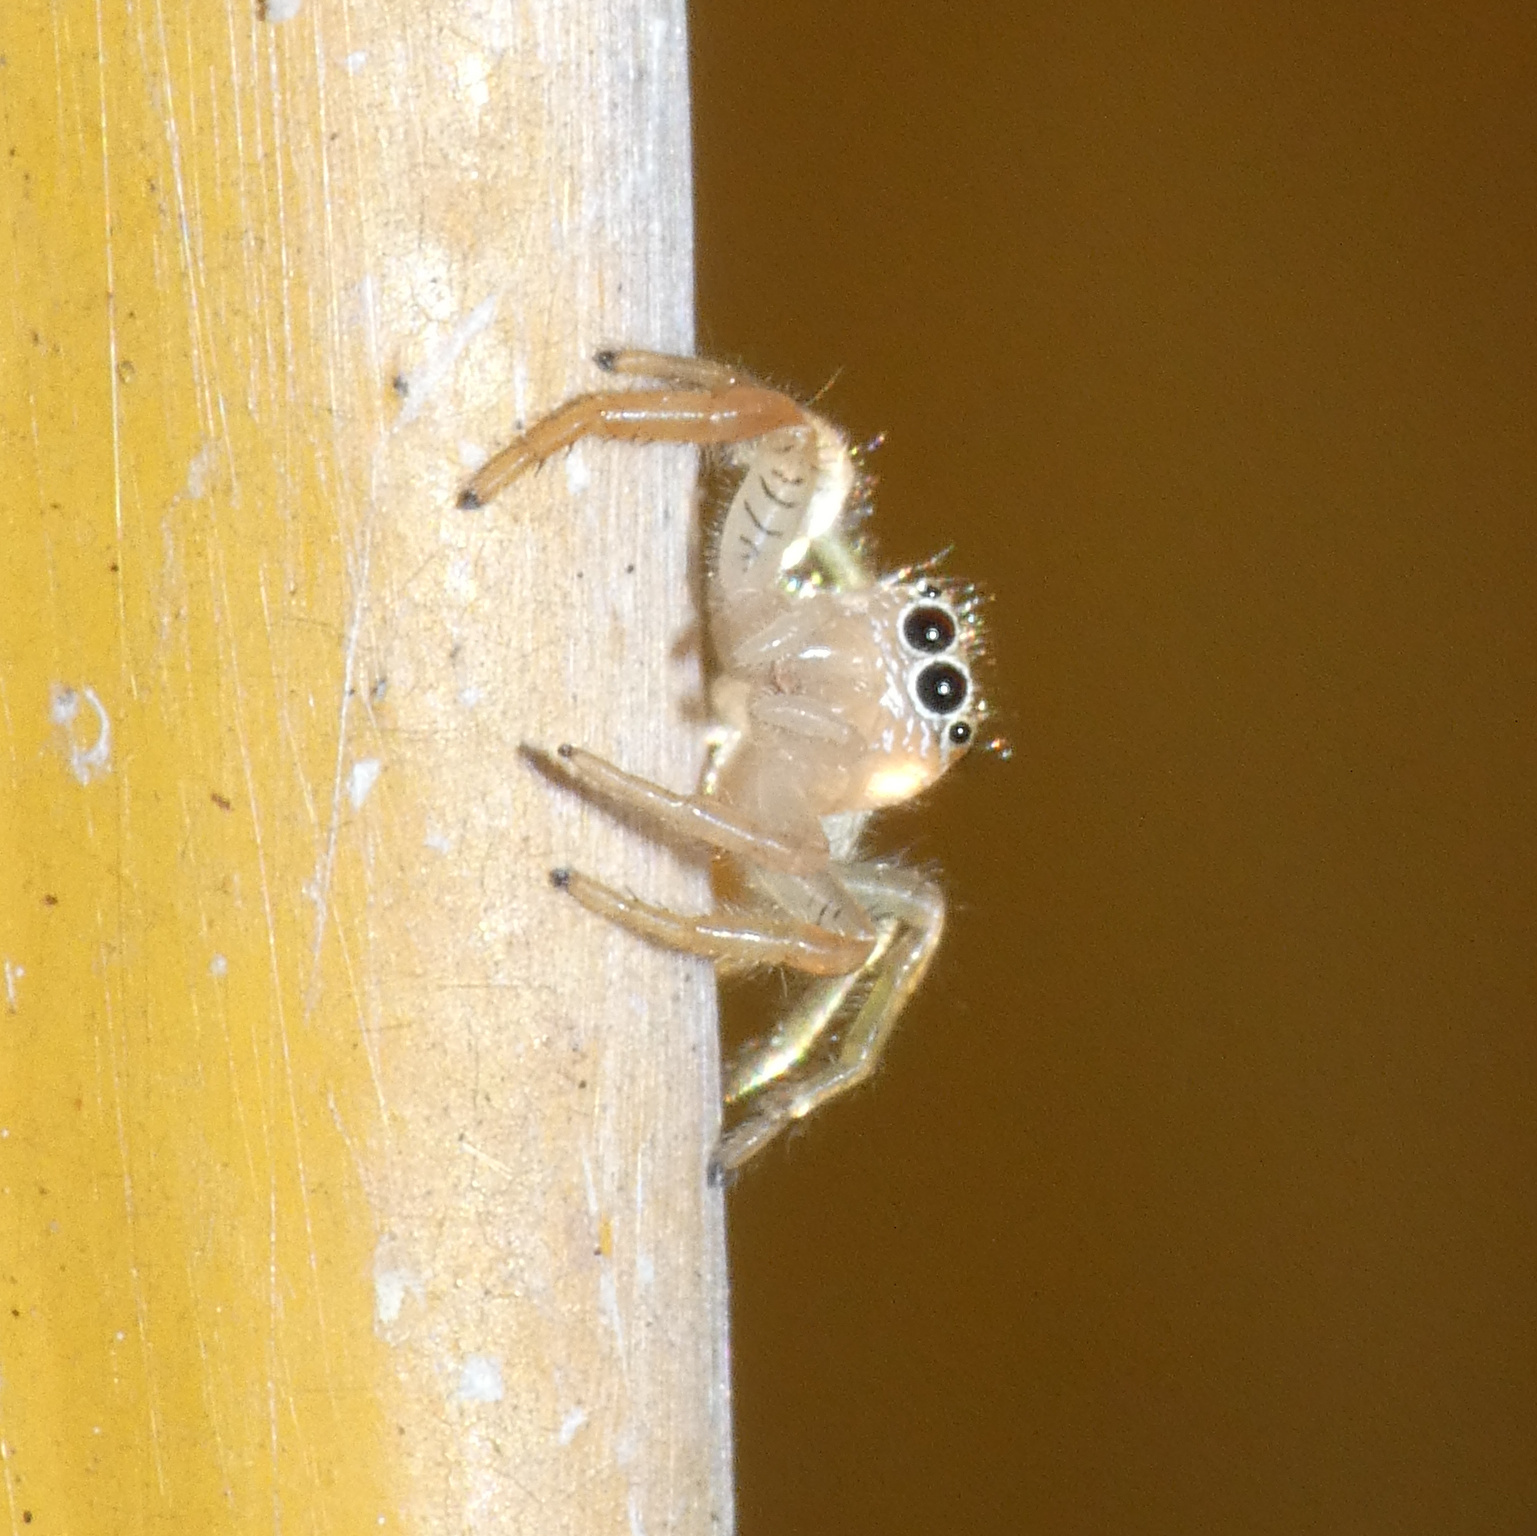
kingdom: Animalia
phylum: Arthropoda
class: Arachnida
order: Araneae
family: Salticidae
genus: Thyene
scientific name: Thyene coccineovittata
